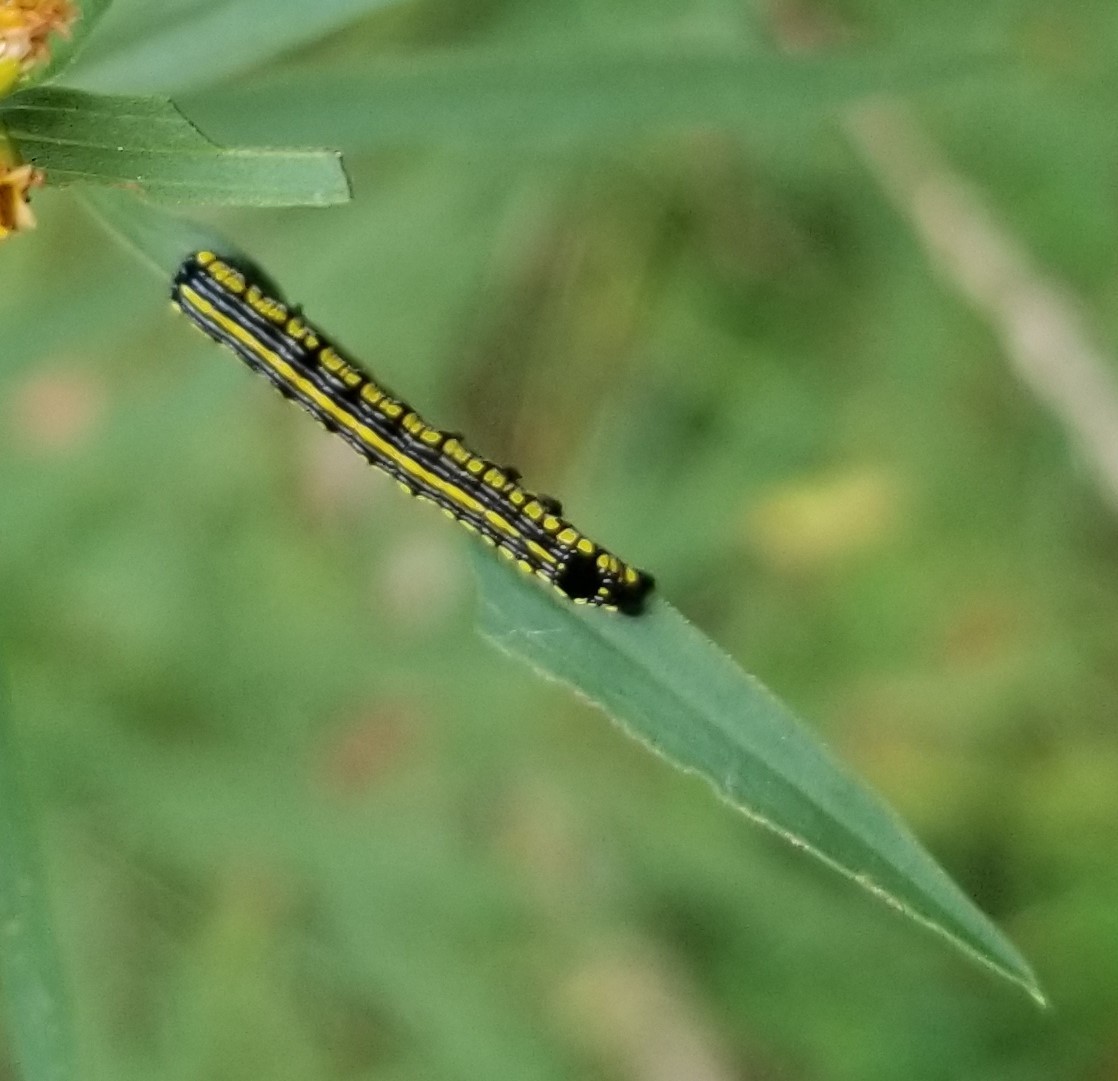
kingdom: Animalia
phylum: Arthropoda
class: Insecta
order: Lepidoptera
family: Noctuidae
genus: Cucullia
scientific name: Cucullia convexipennis
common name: Brown-hooded owlet
